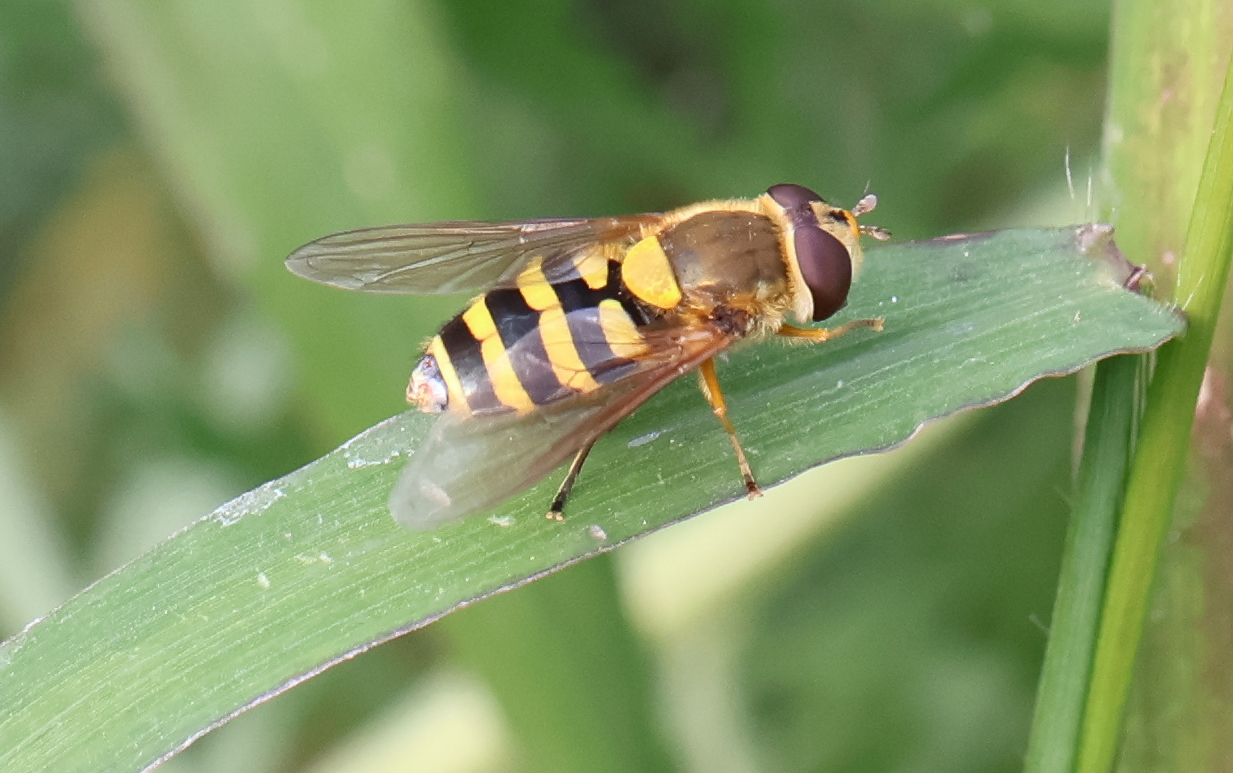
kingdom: Animalia
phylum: Arthropoda
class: Insecta
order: Diptera
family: Syrphidae
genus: Syrphus
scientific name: Syrphus
